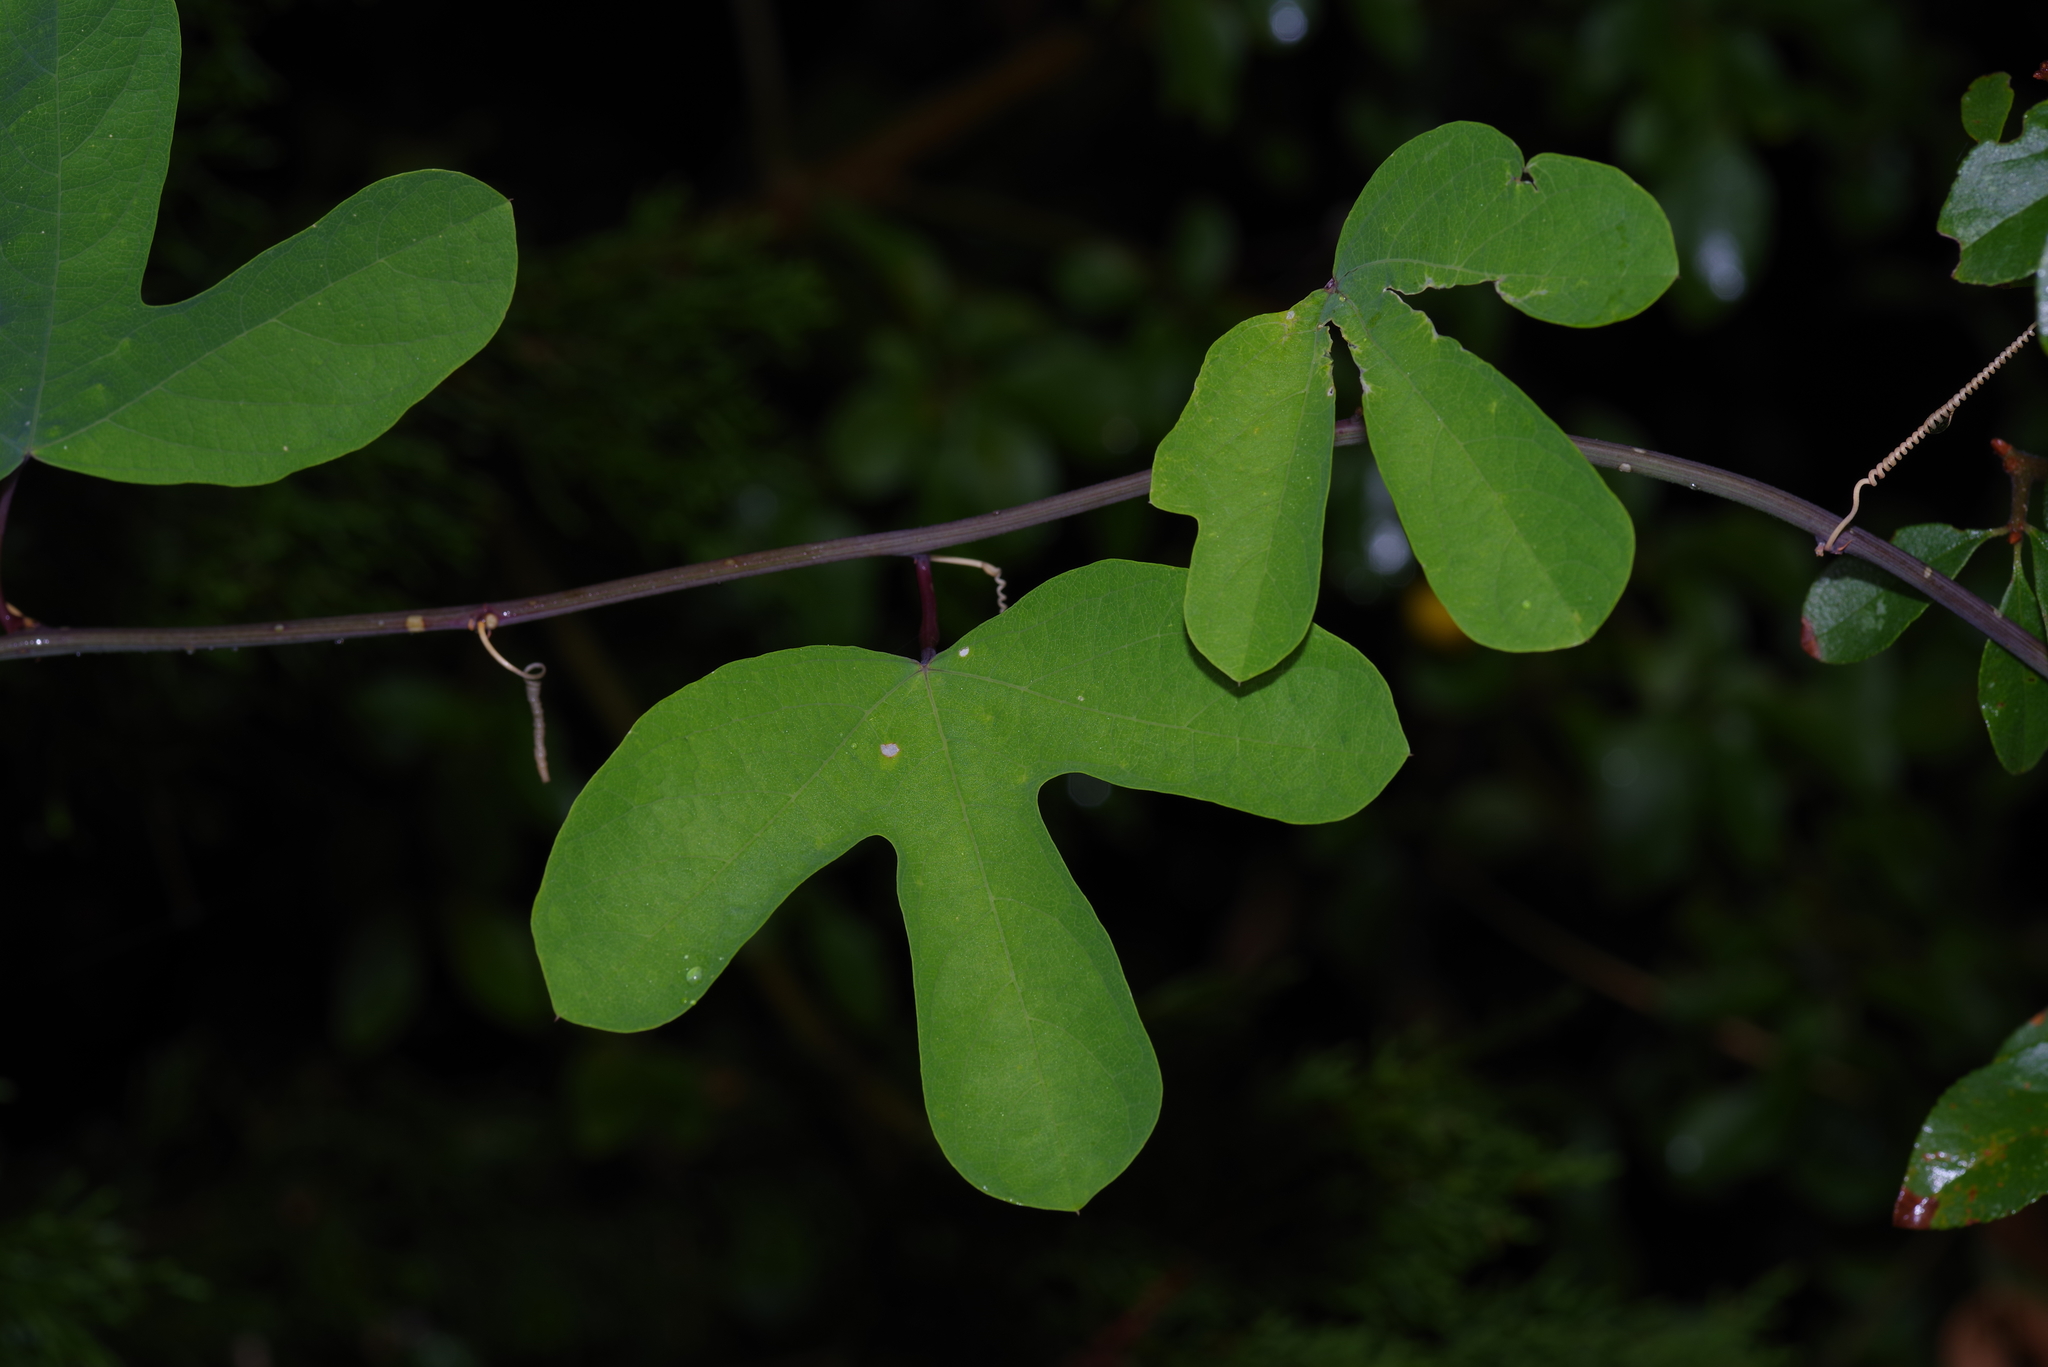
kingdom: Plantae
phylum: Tracheophyta
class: Magnoliopsida
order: Malpighiales
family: Passifloraceae
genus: Passiflora
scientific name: Passiflora affinis
